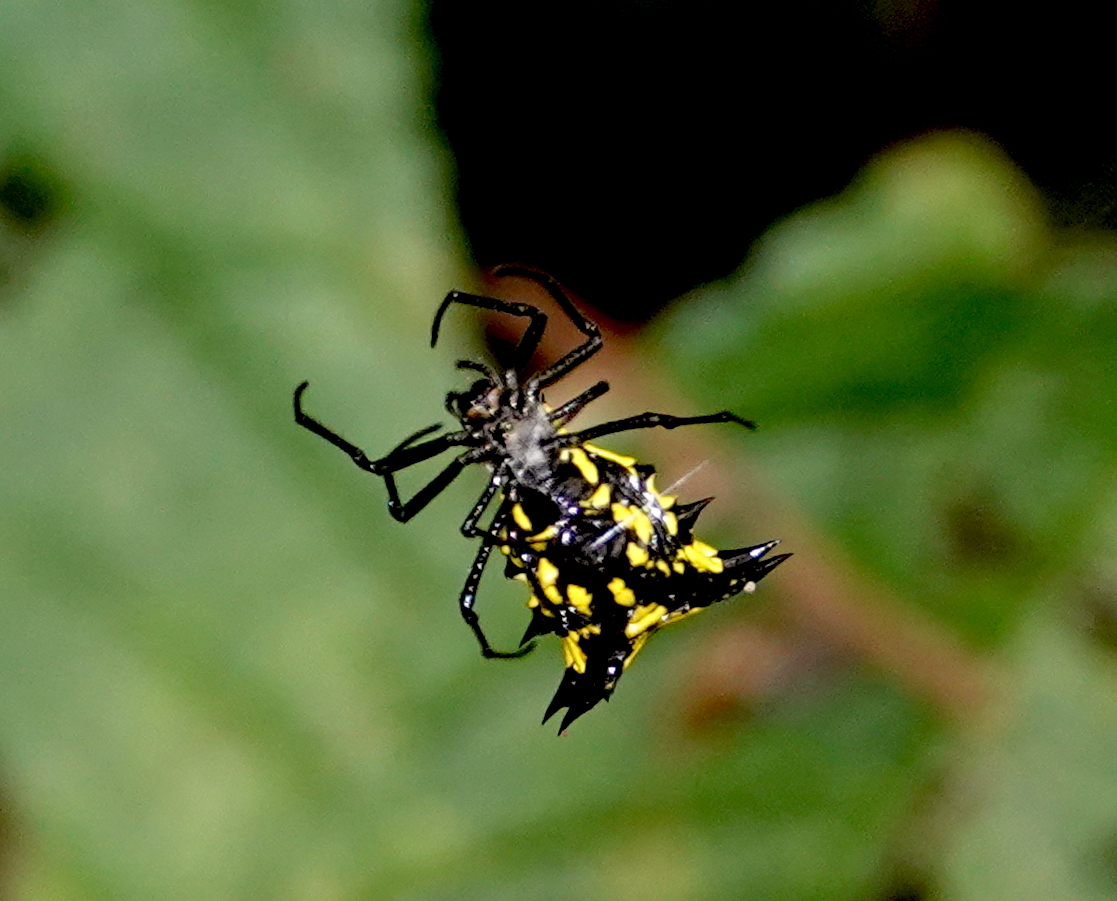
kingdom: Animalia
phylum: Arthropoda
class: Arachnida
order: Araneae
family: Araneidae
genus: Micrathena
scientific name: Micrathena decorata
